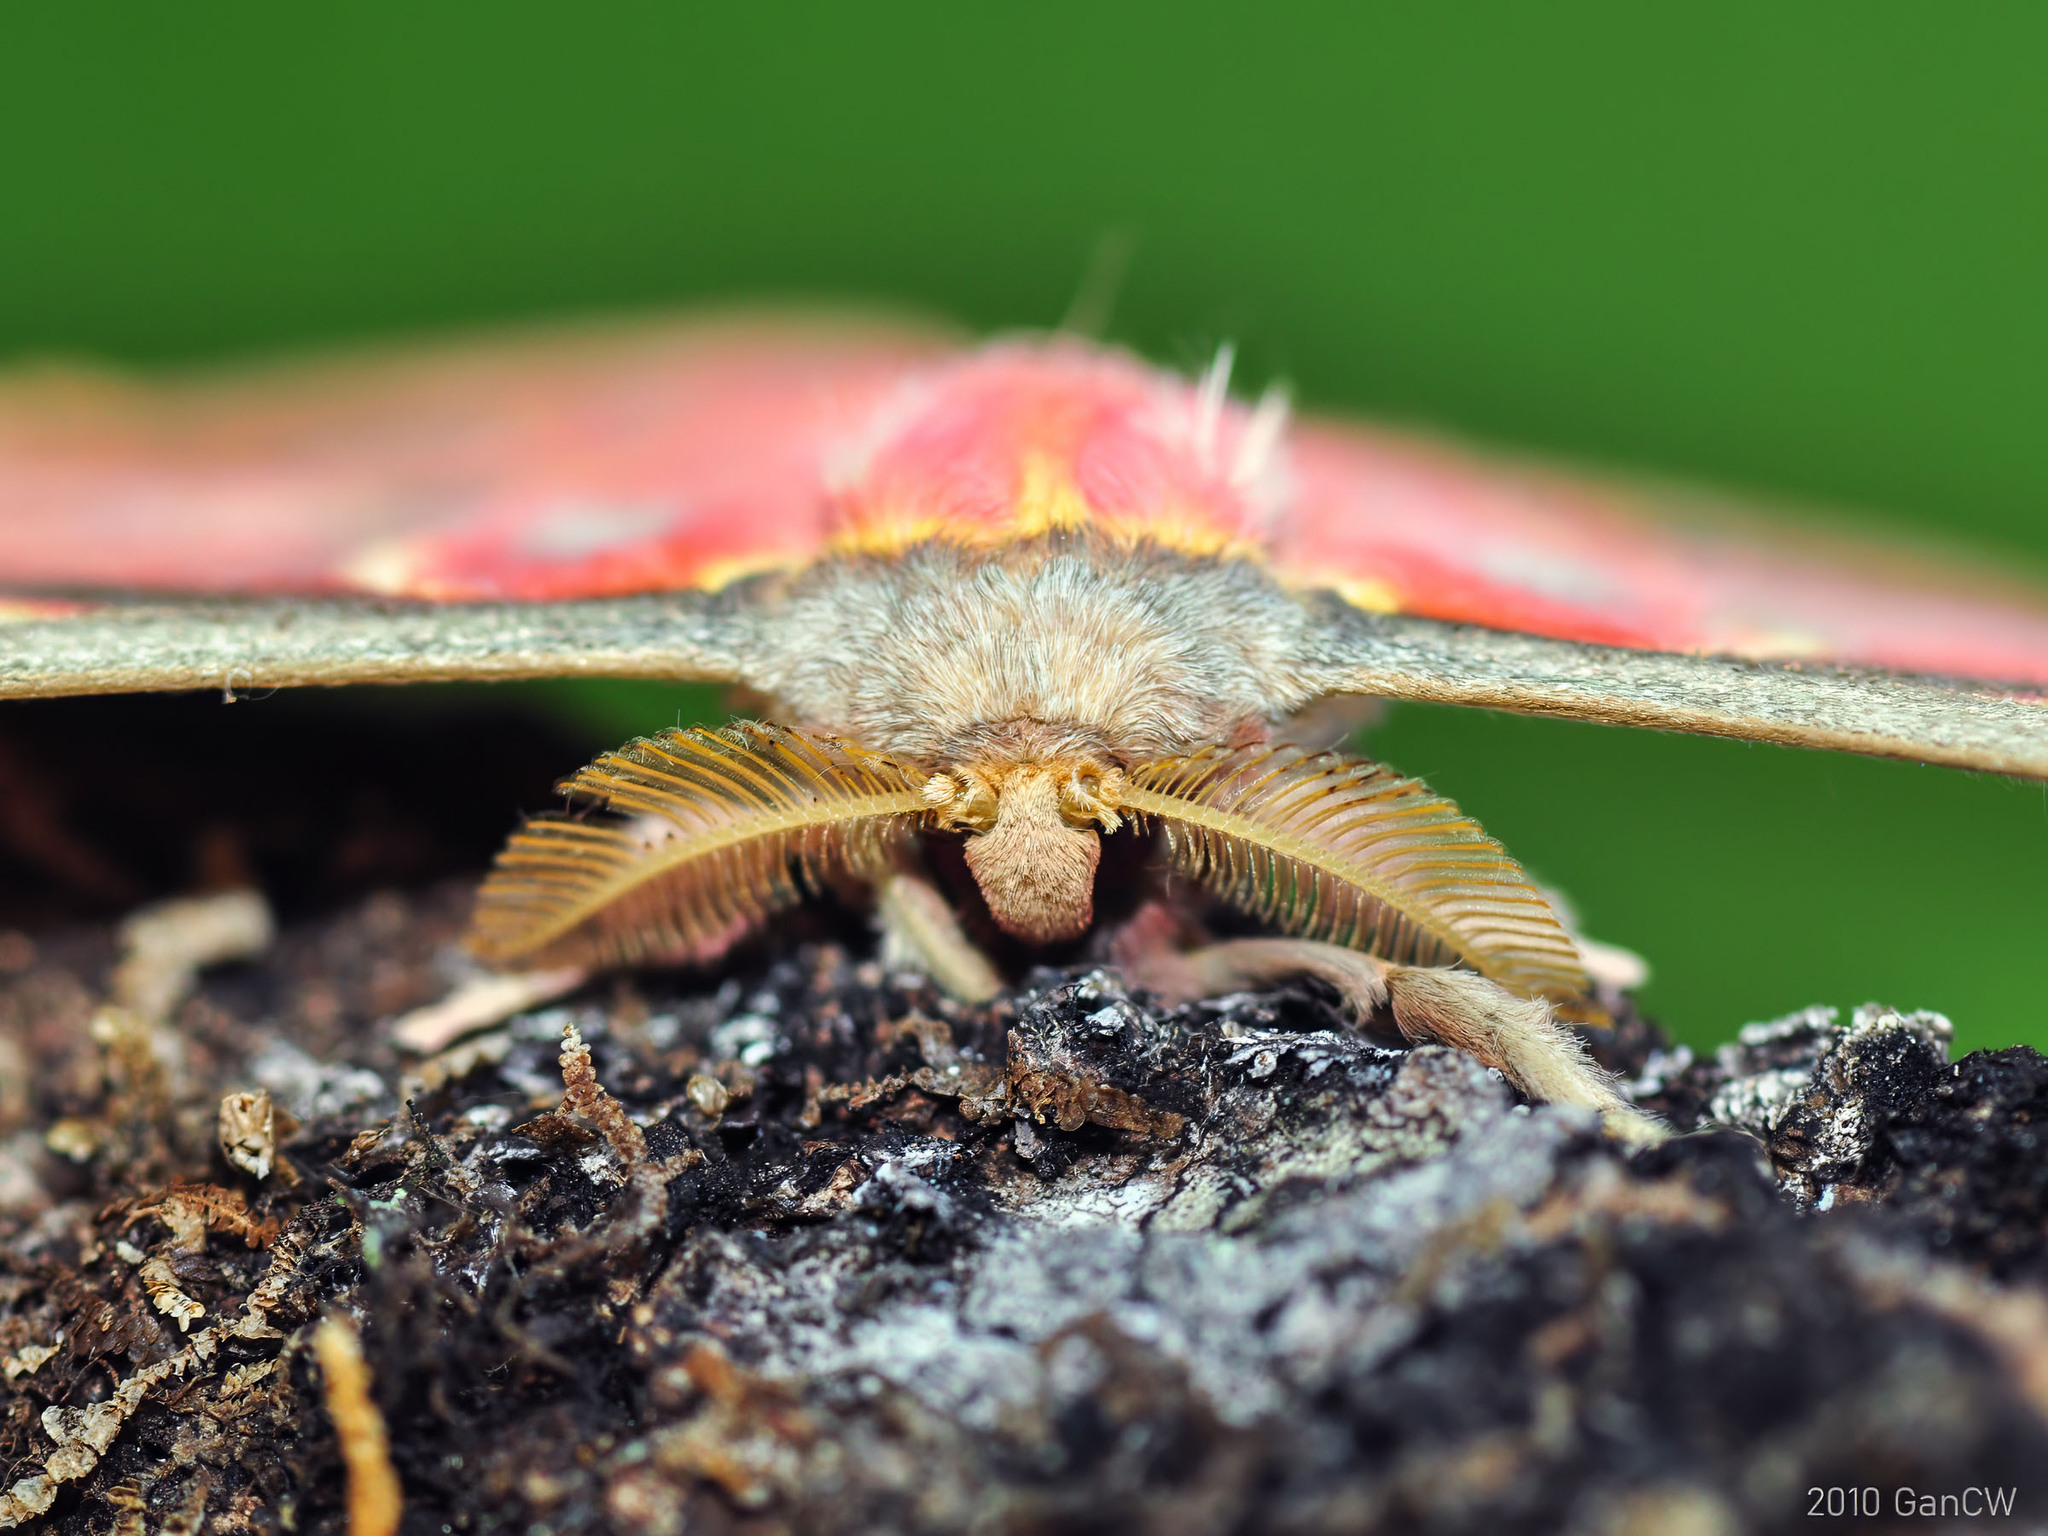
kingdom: Animalia
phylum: Arthropoda
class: Insecta
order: Lepidoptera
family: Saturniidae
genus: Antheraea
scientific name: Antheraea larissa
